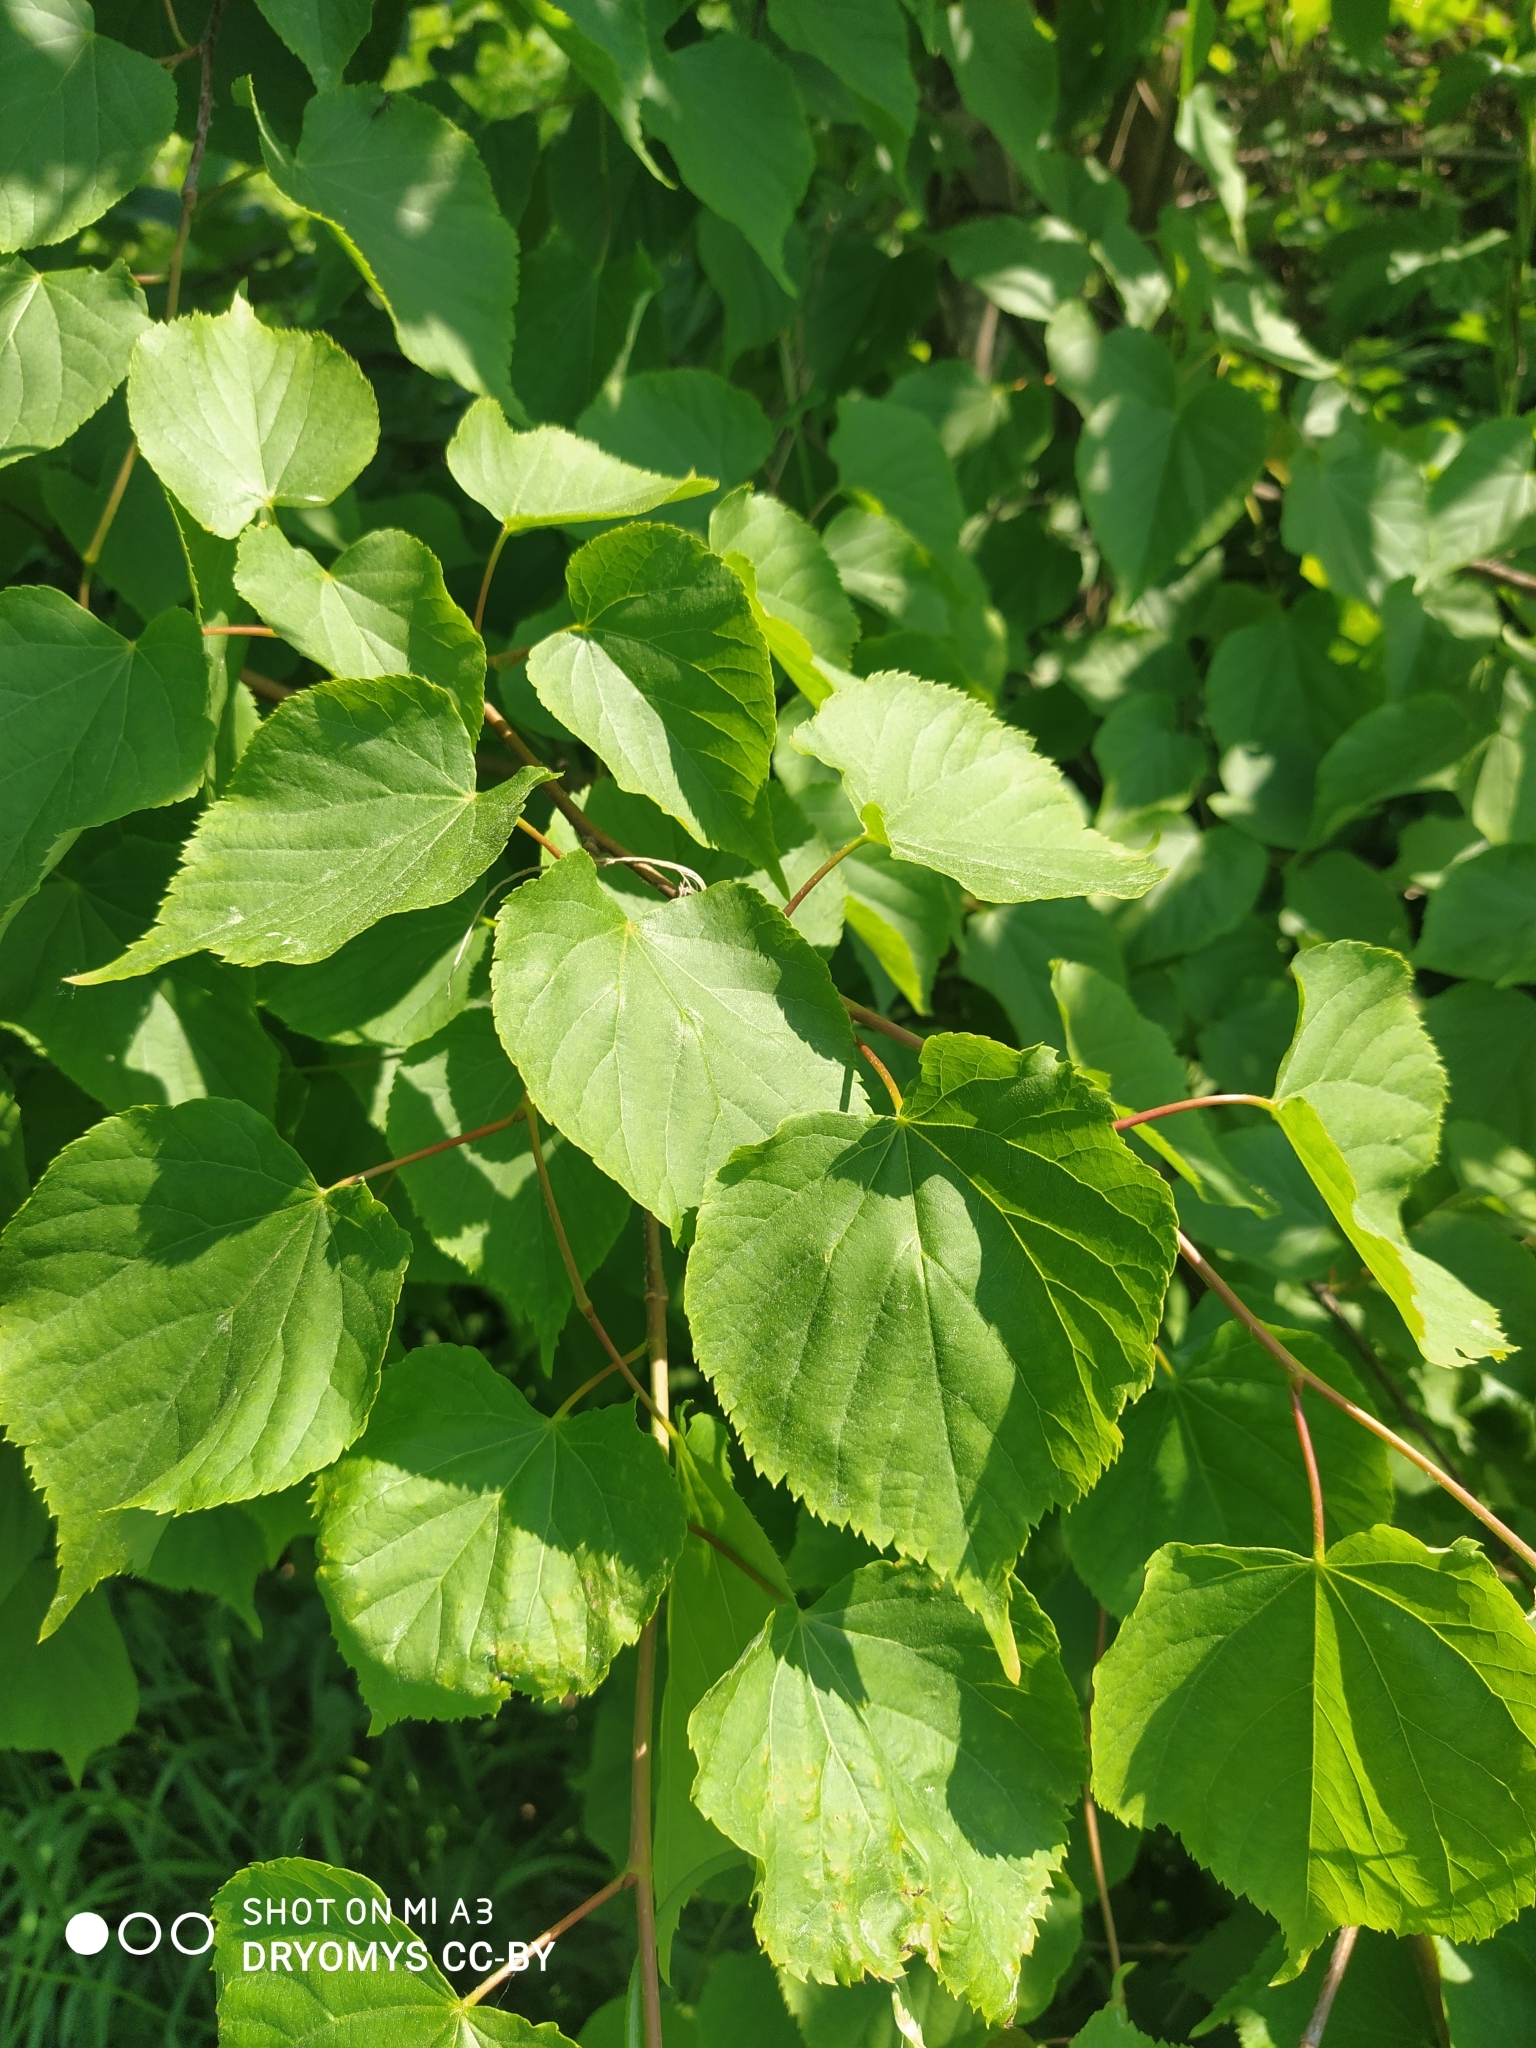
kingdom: Plantae
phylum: Tracheophyta
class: Magnoliopsida
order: Malvales
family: Malvaceae
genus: Tilia
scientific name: Tilia cordata
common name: Small-leaved lime
